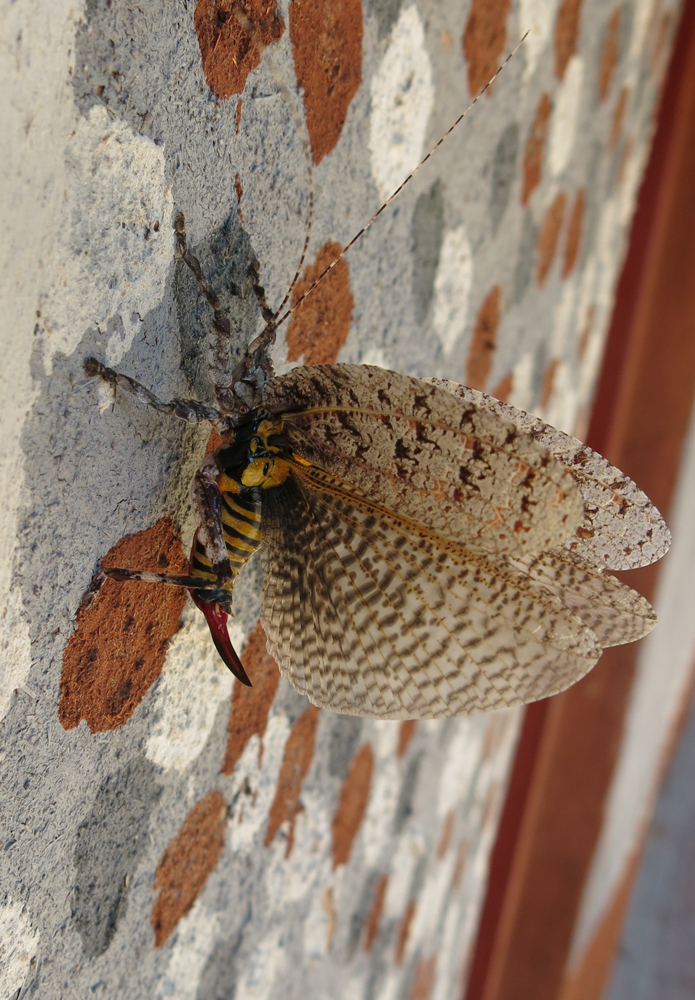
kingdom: Animalia
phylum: Arthropoda
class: Insecta
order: Orthoptera
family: Tettigoniidae
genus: Cymatomera
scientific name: Cymatomera denticollis
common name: Common bark katydid
